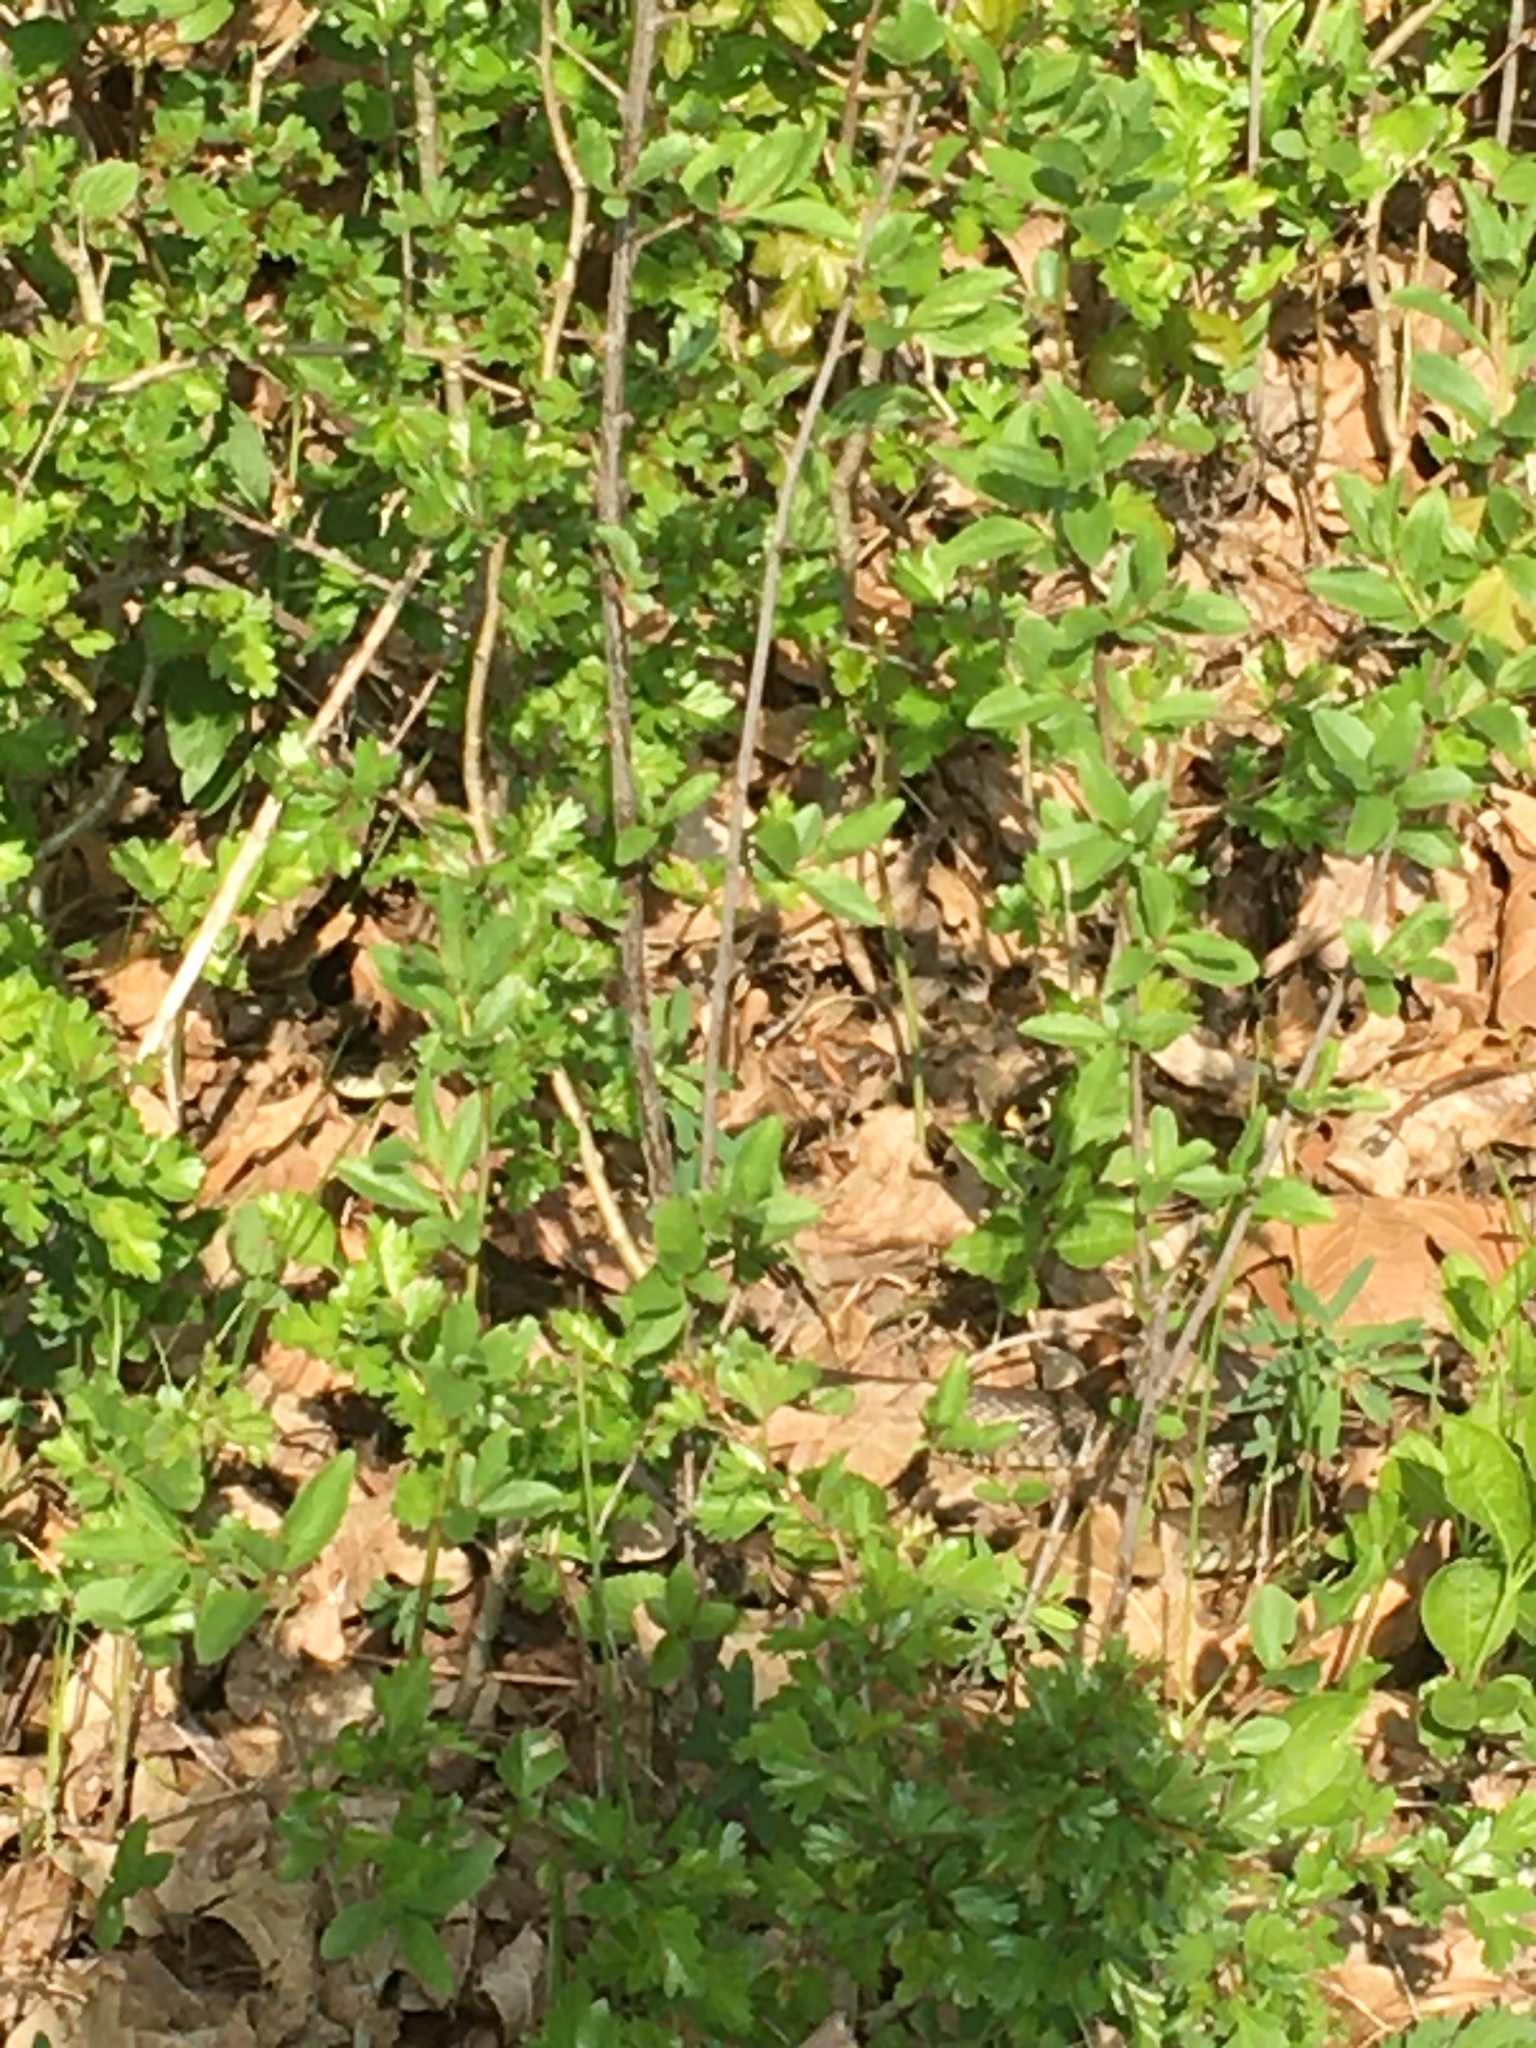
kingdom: Animalia
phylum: Chordata
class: Squamata
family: Colubridae
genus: Natrix
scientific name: Natrix natrix
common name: Grass snake
